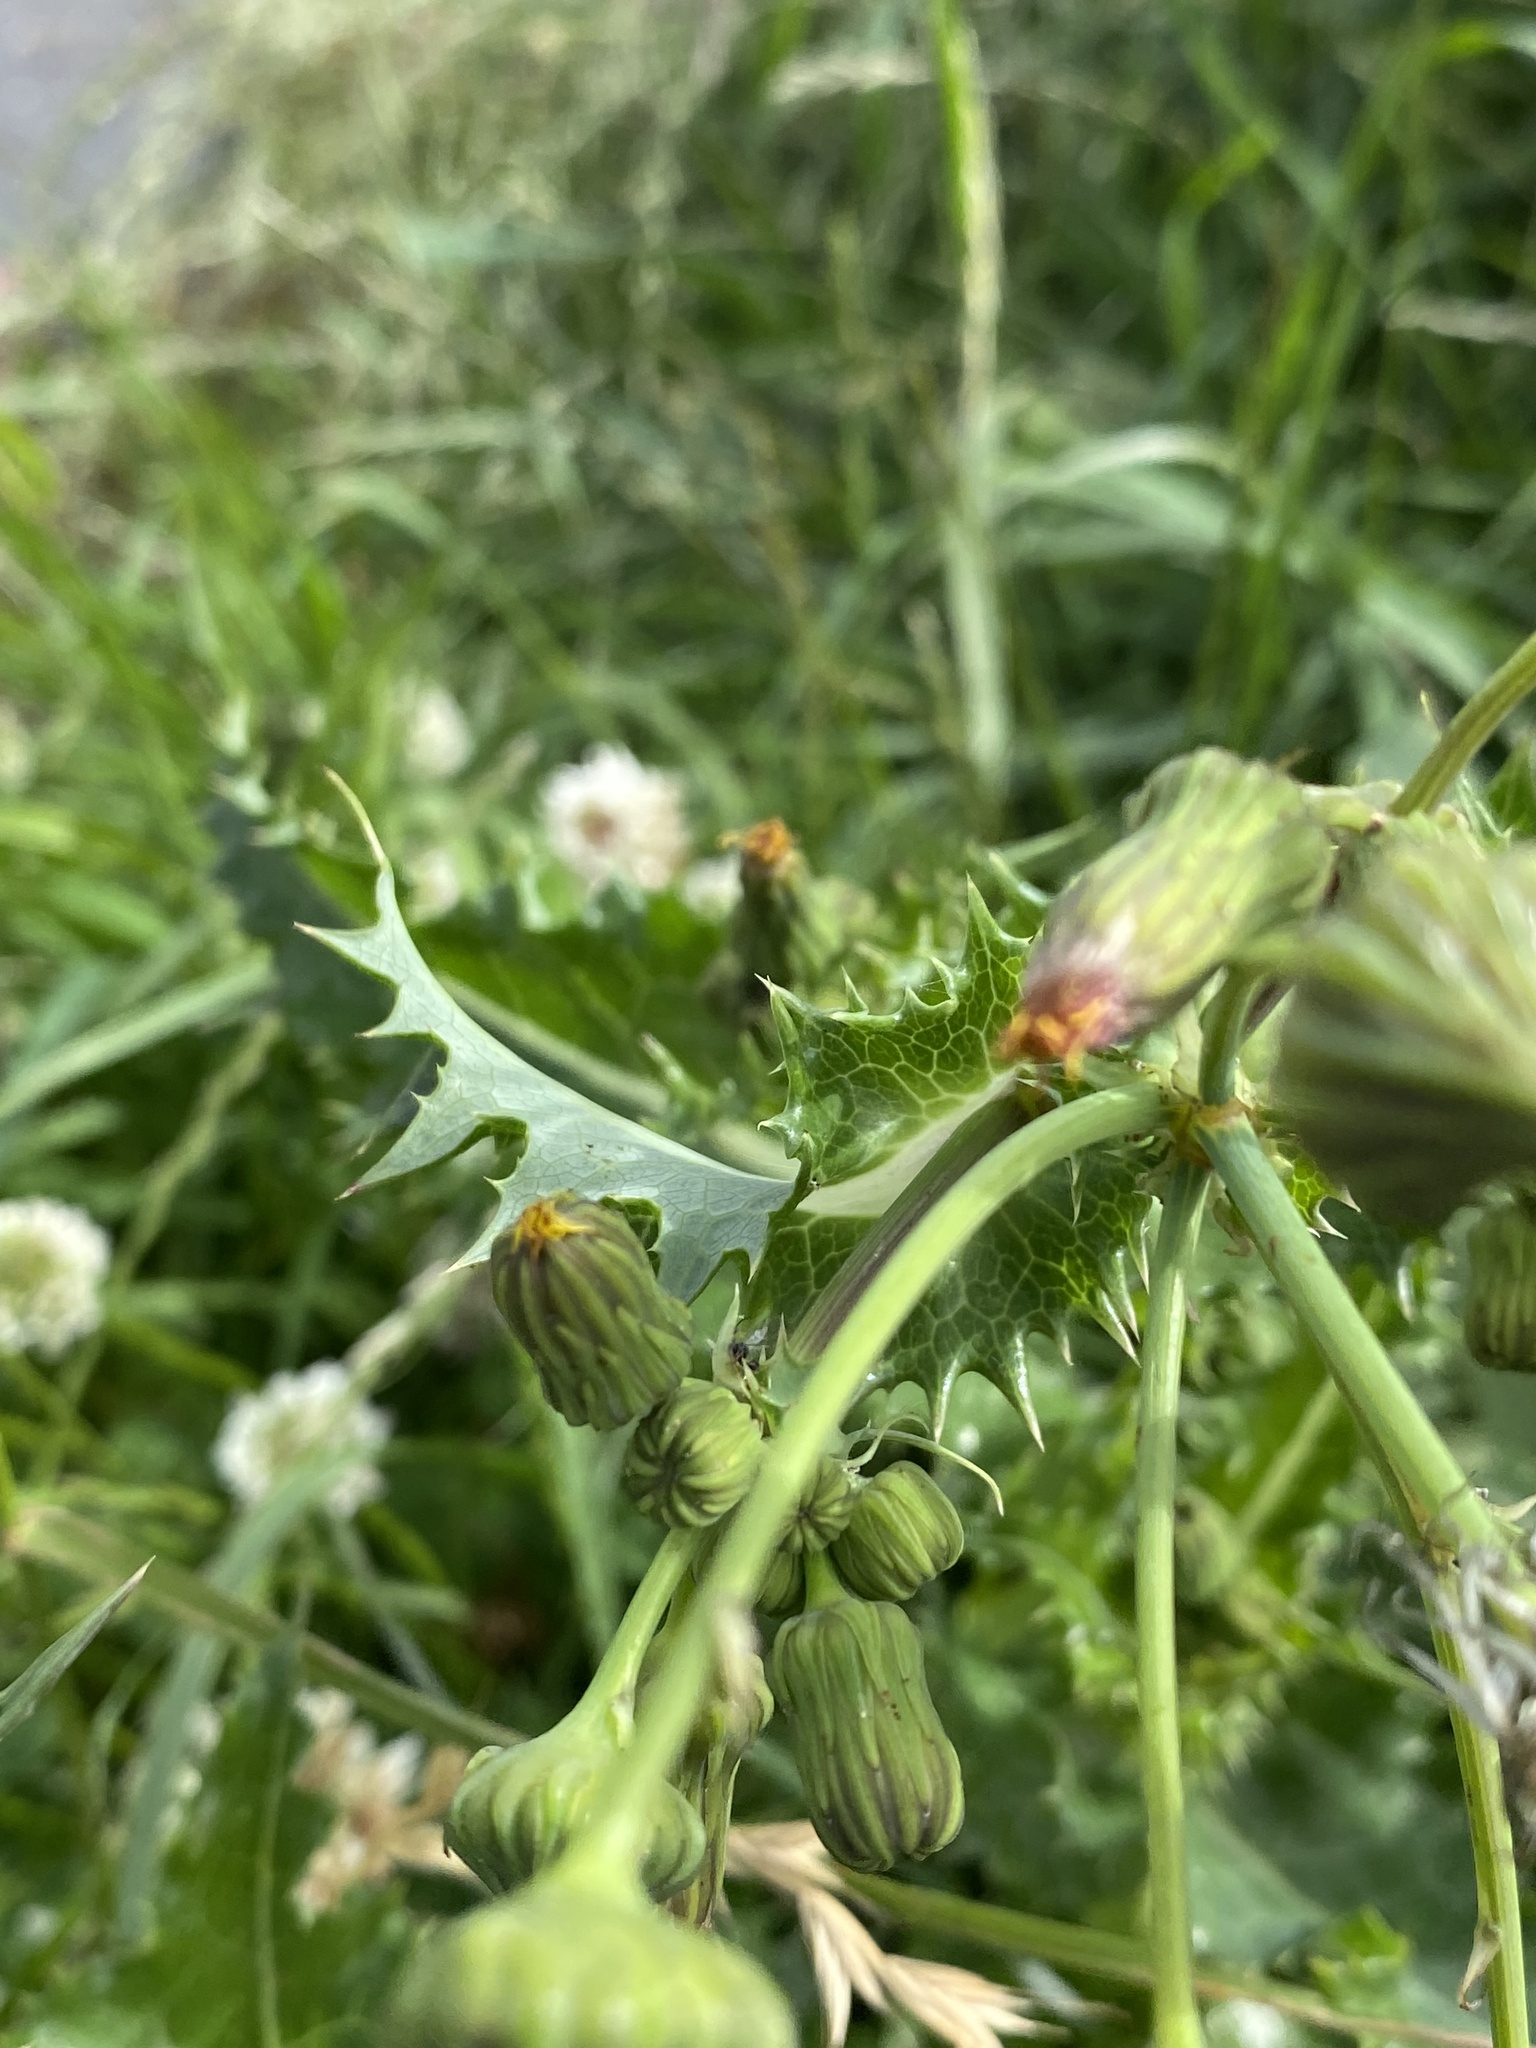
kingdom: Plantae
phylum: Tracheophyta
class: Magnoliopsida
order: Asterales
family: Asteraceae
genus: Sonchus
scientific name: Sonchus asper
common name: Prickly sow-thistle
